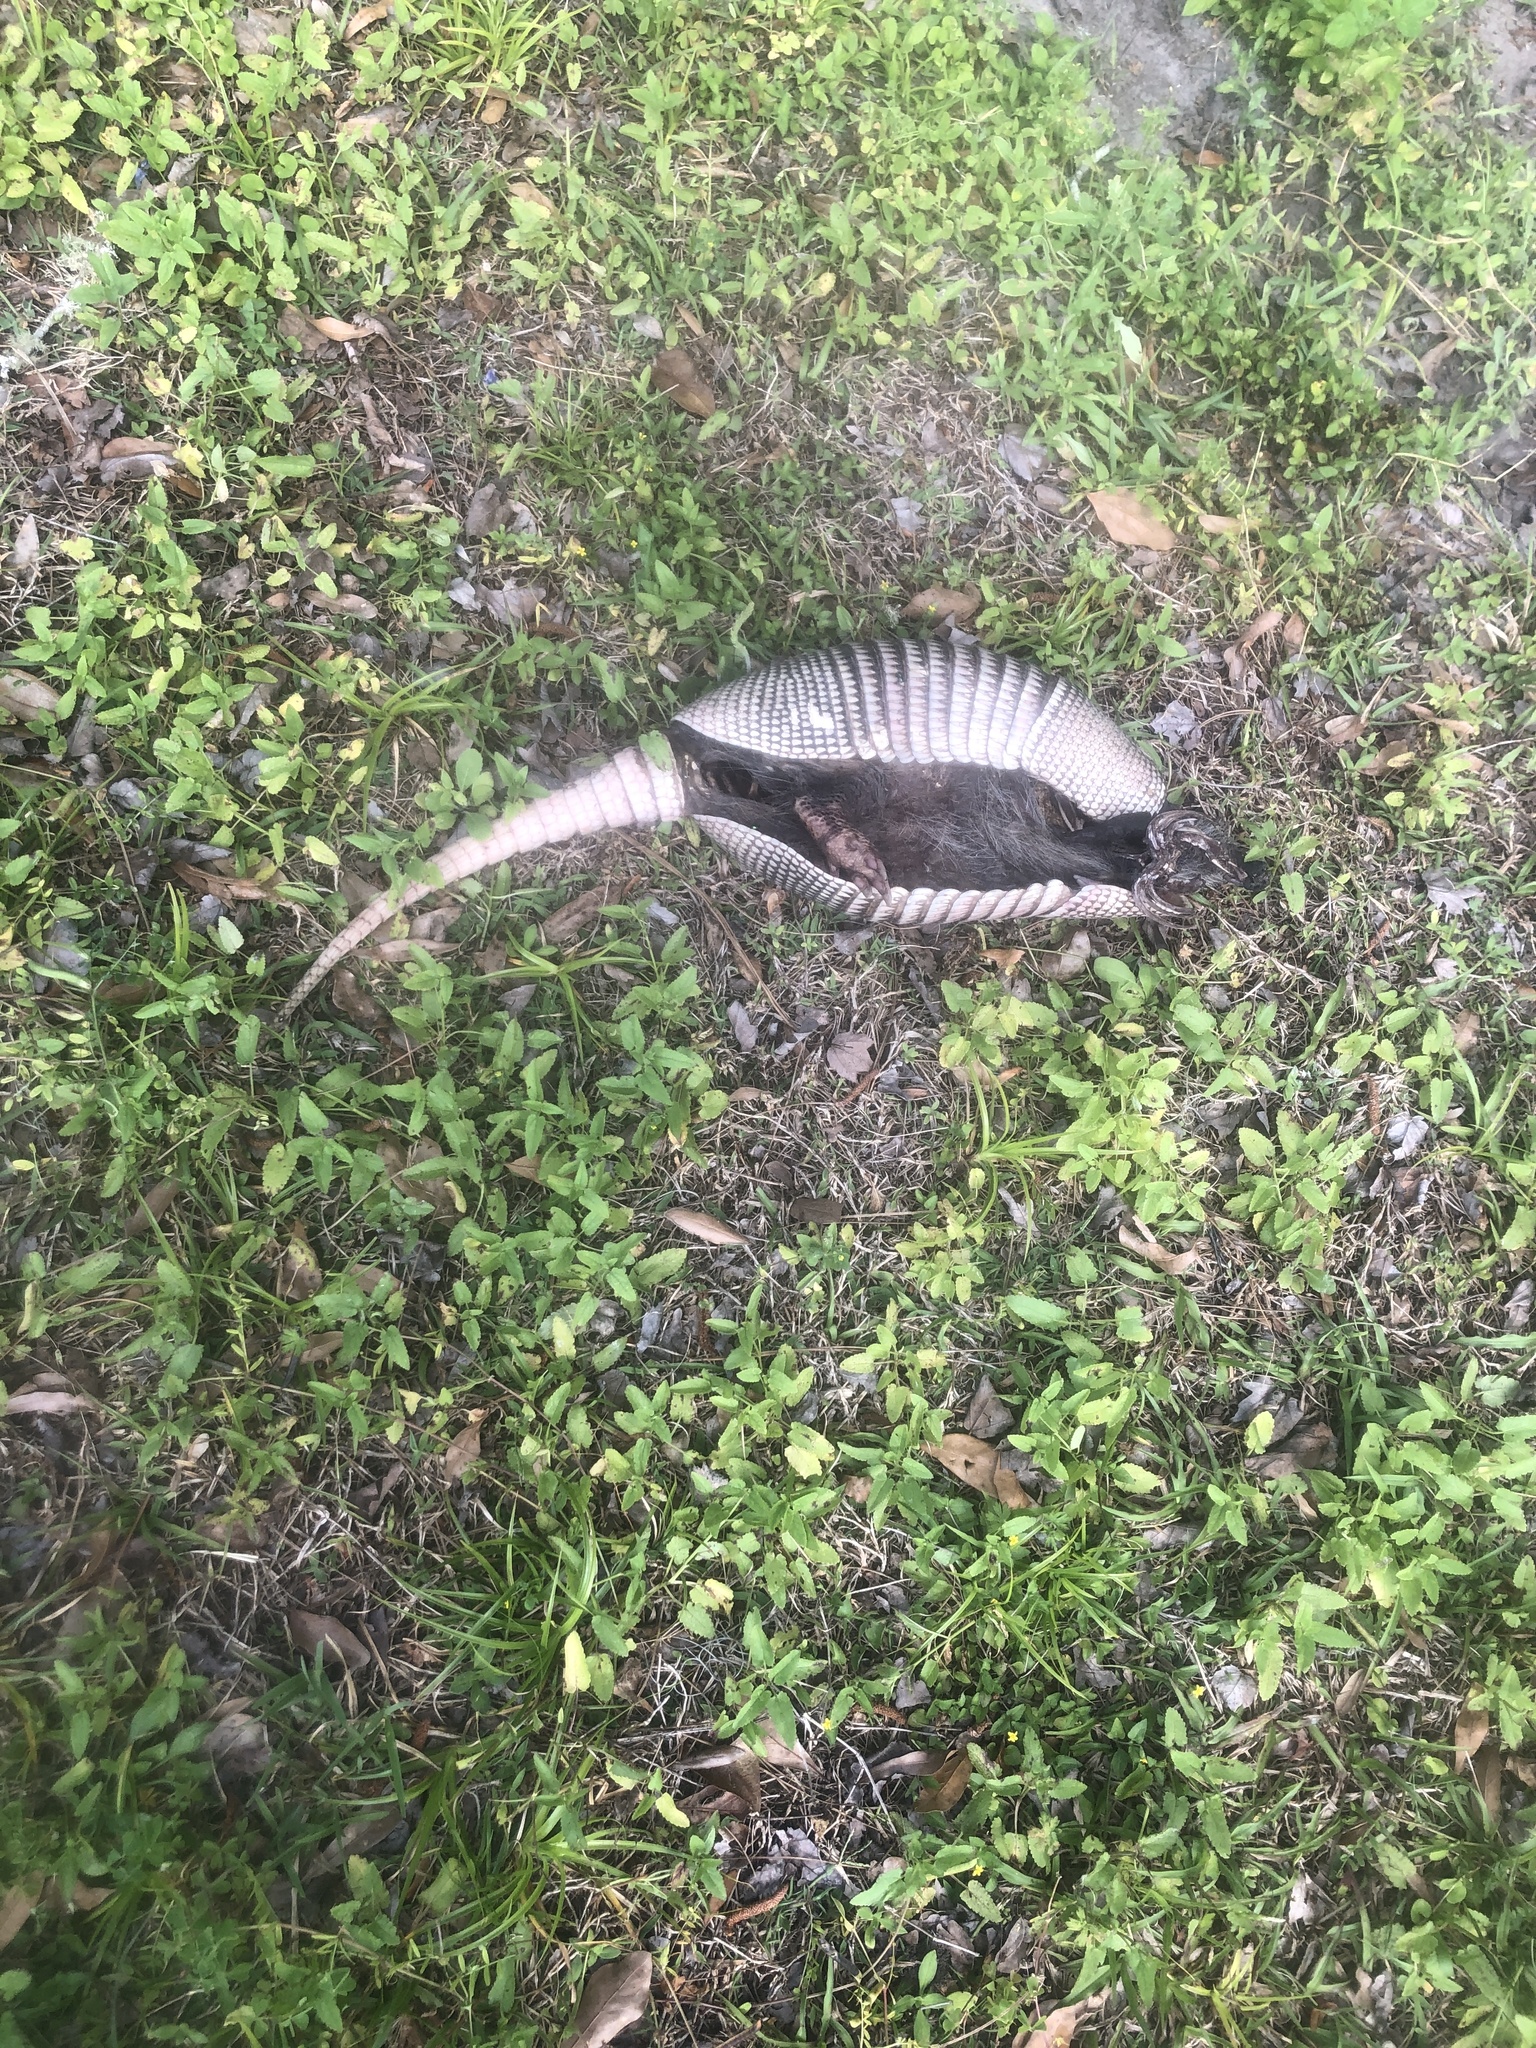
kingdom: Animalia
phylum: Chordata
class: Mammalia
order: Cingulata
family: Dasypodidae
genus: Dasypus
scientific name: Dasypus novemcinctus
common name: Nine-banded armadillo
